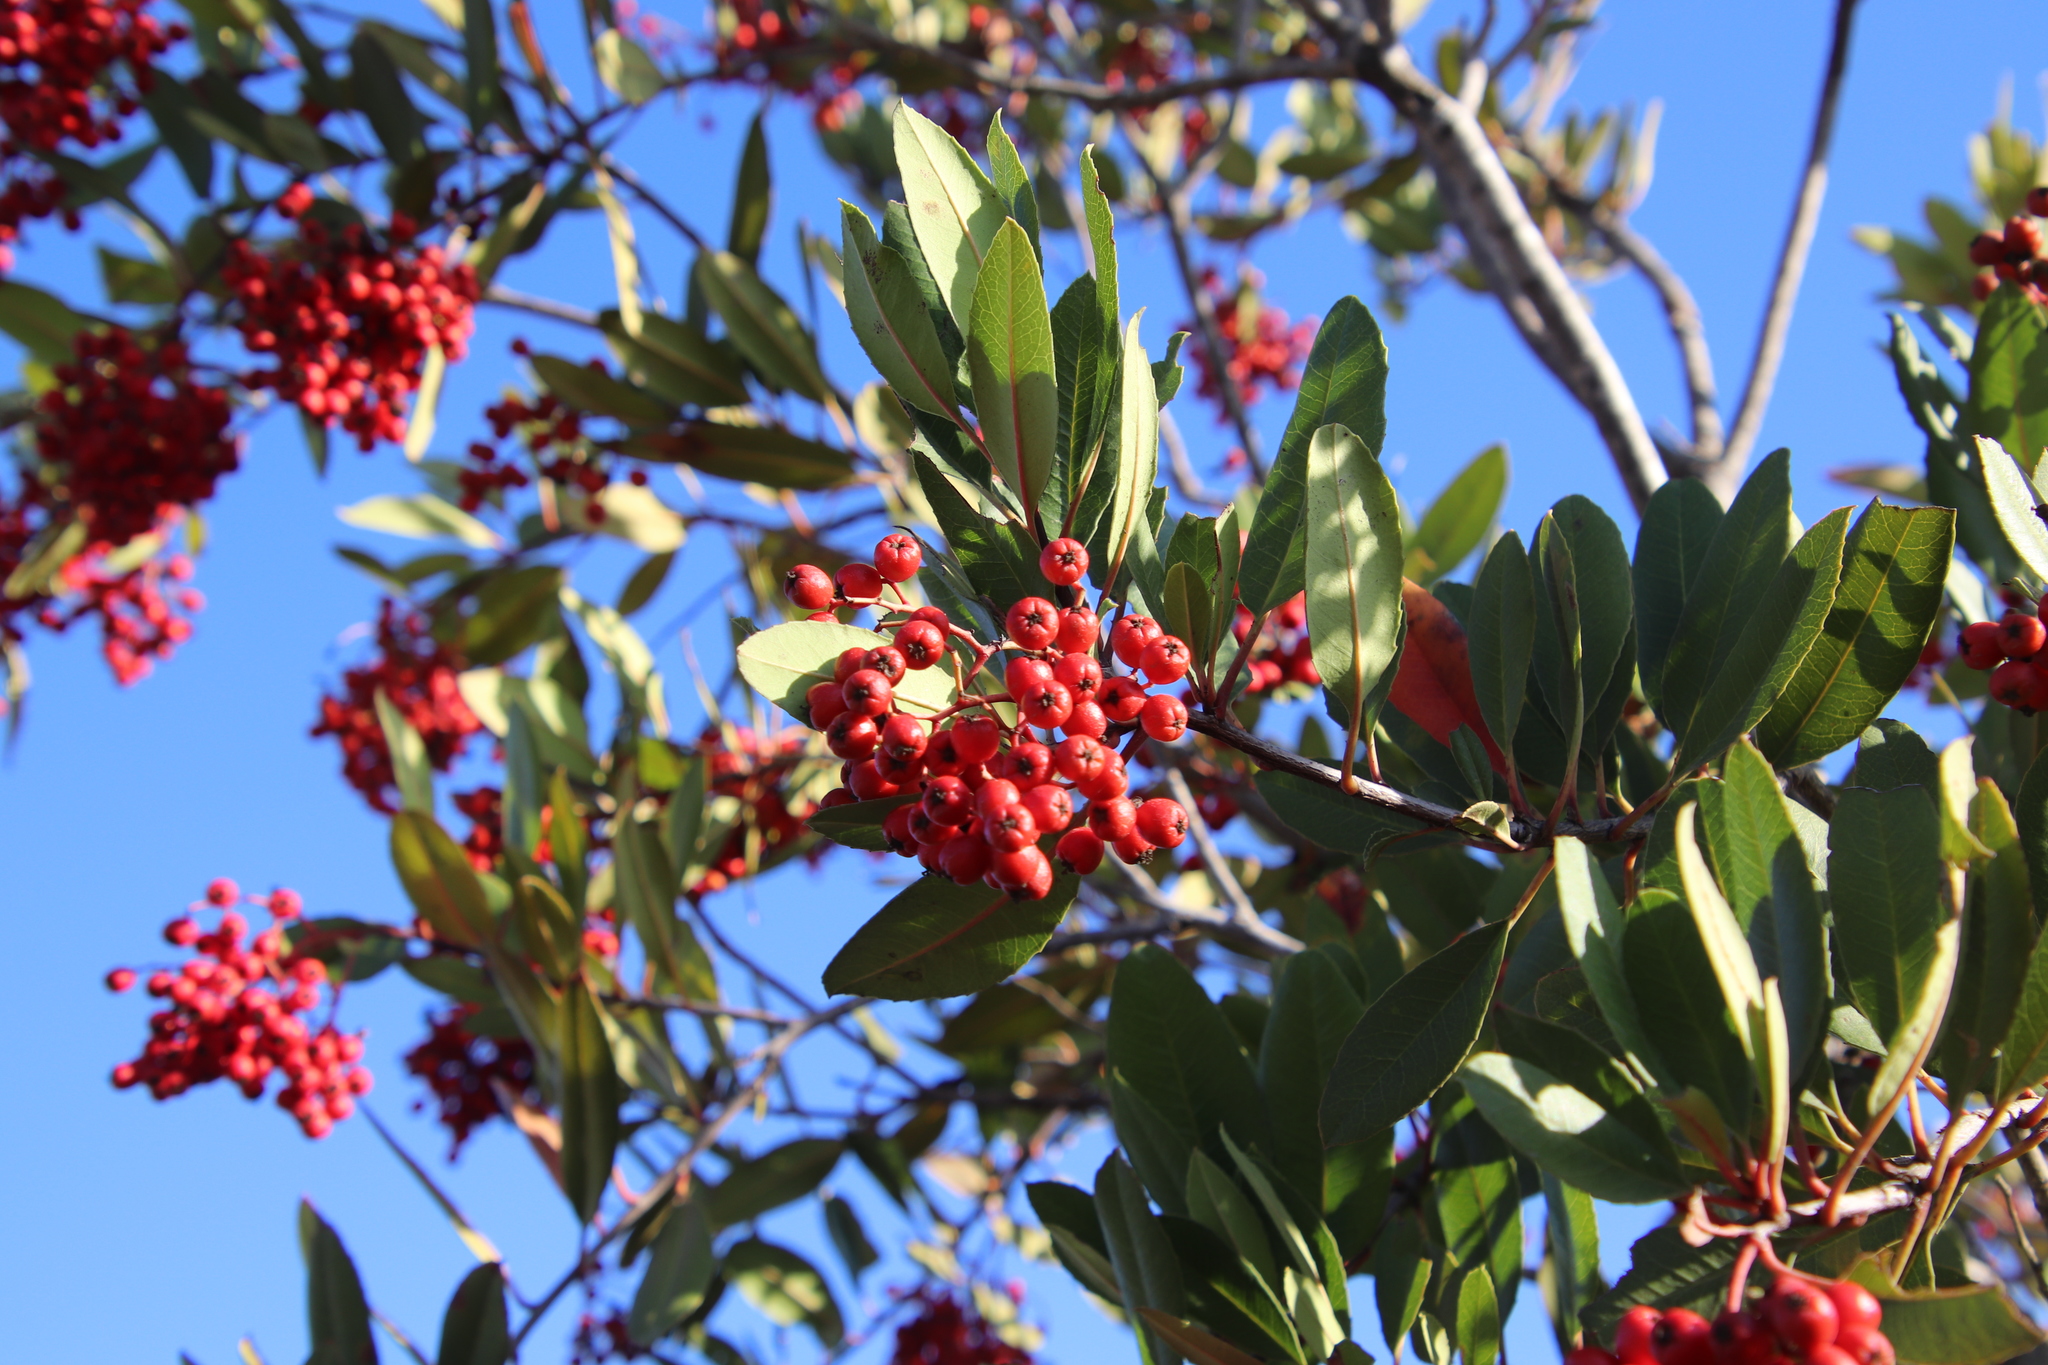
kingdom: Plantae
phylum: Tracheophyta
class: Magnoliopsida
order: Rosales
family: Rosaceae
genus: Heteromeles
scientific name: Heteromeles arbutifolia
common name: California-holly
